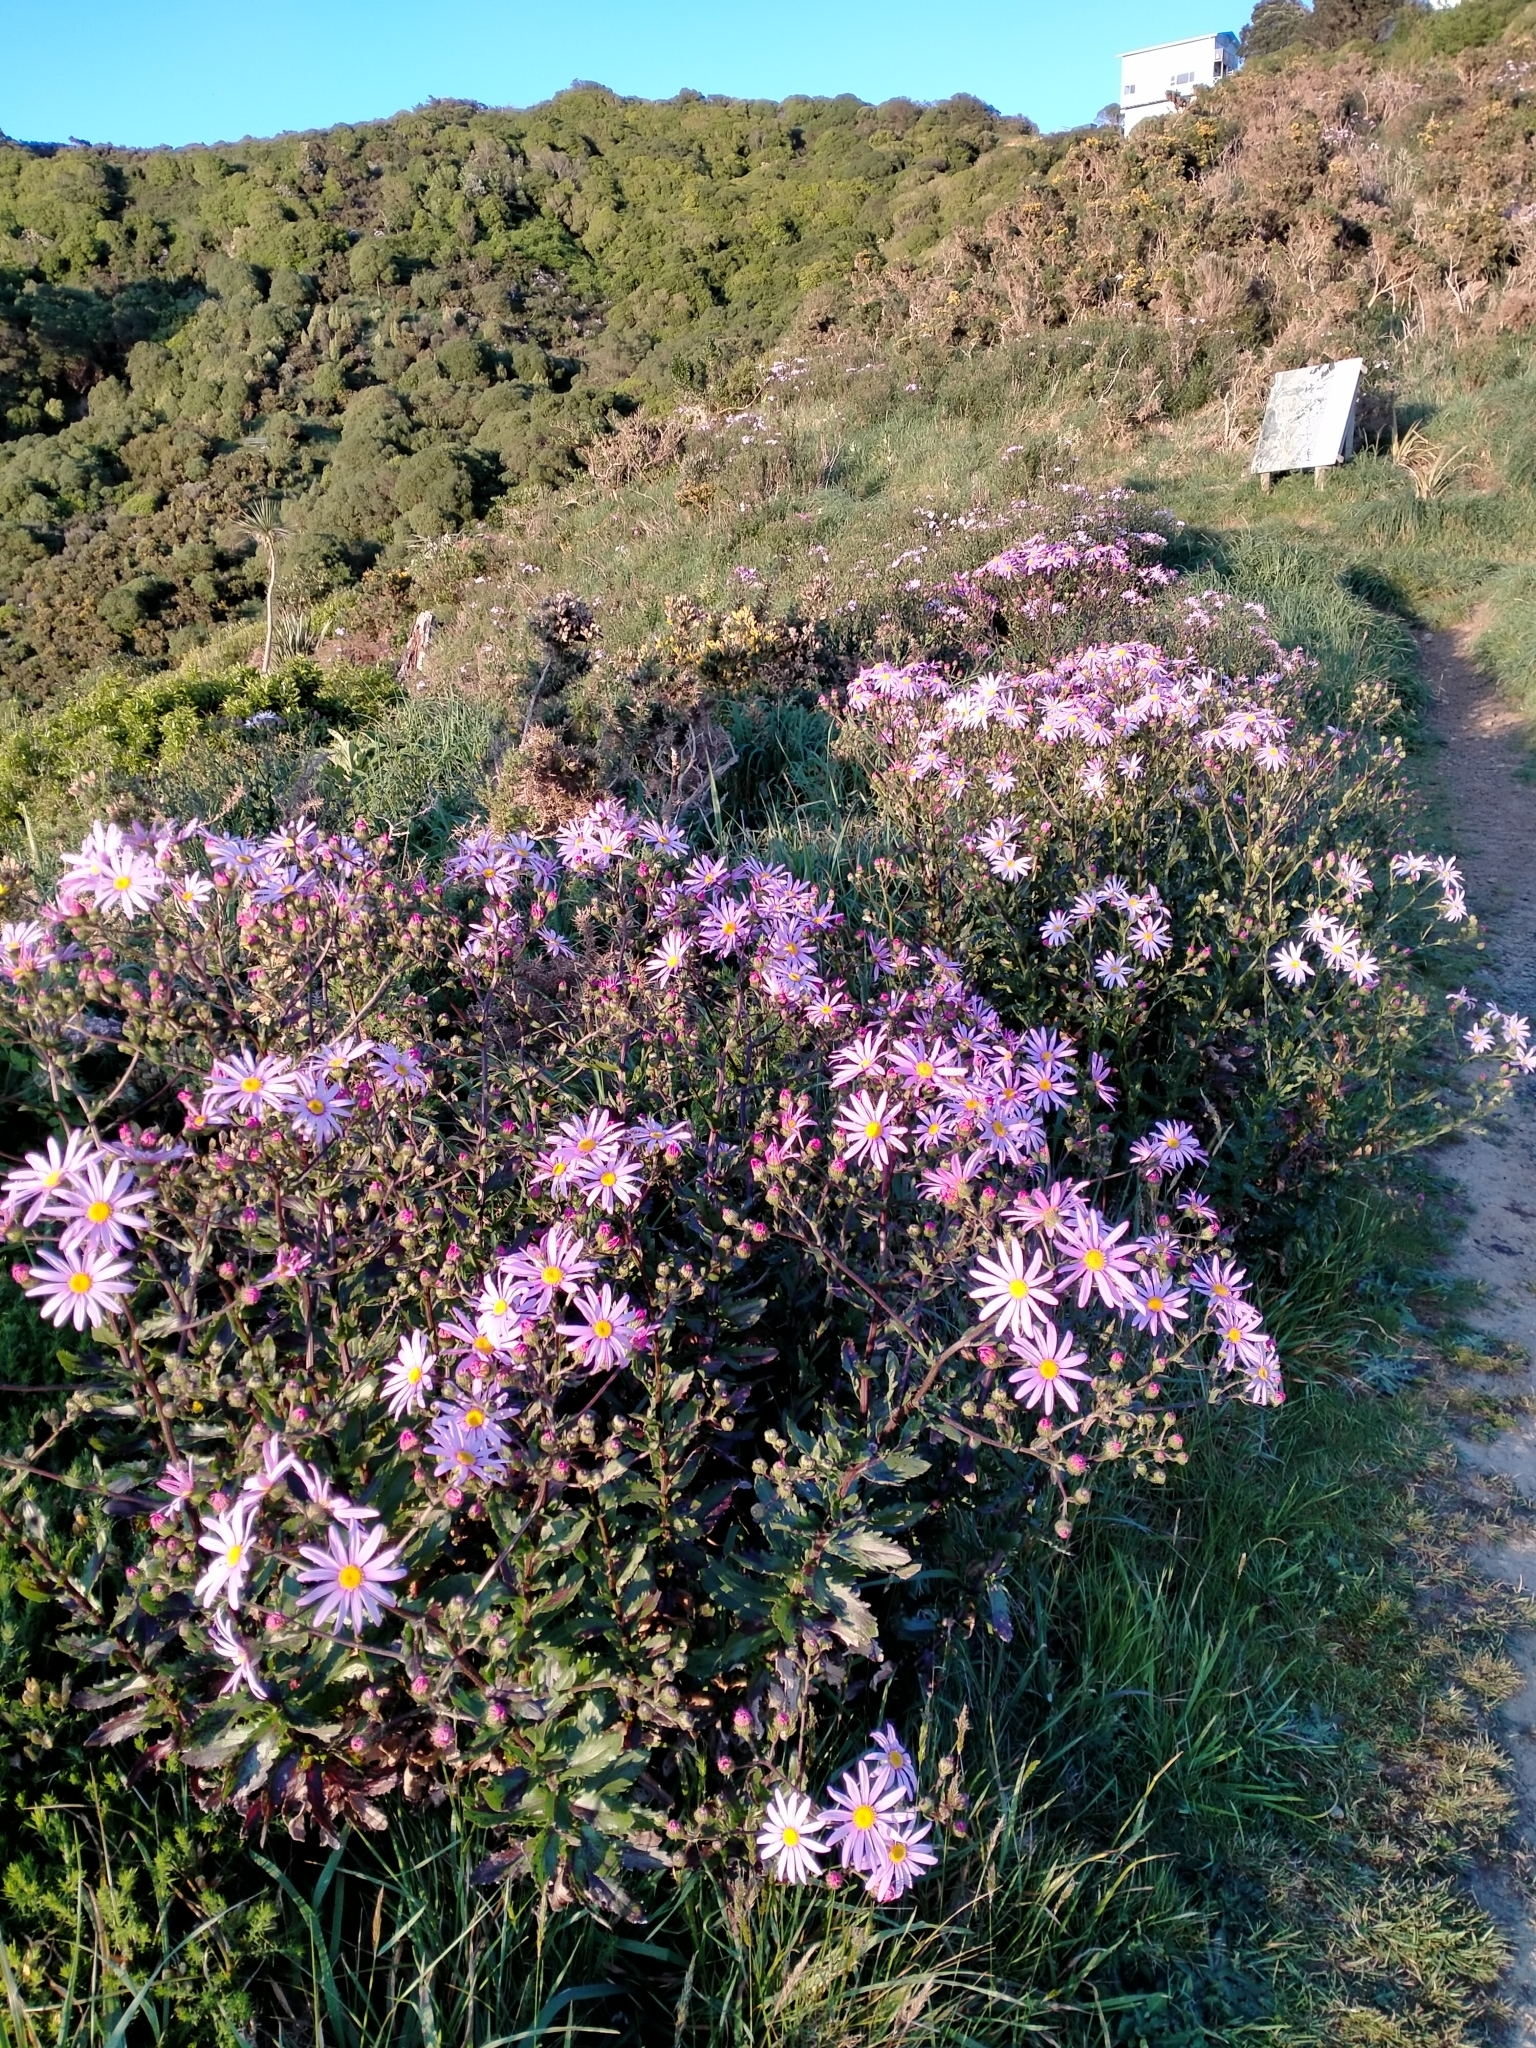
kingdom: Plantae
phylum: Tracheophyta
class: Magnoliopsida
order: Asterales
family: Asteraceae
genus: Senecio
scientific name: Senecio glastifolius
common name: Woad-leaved ragwort
